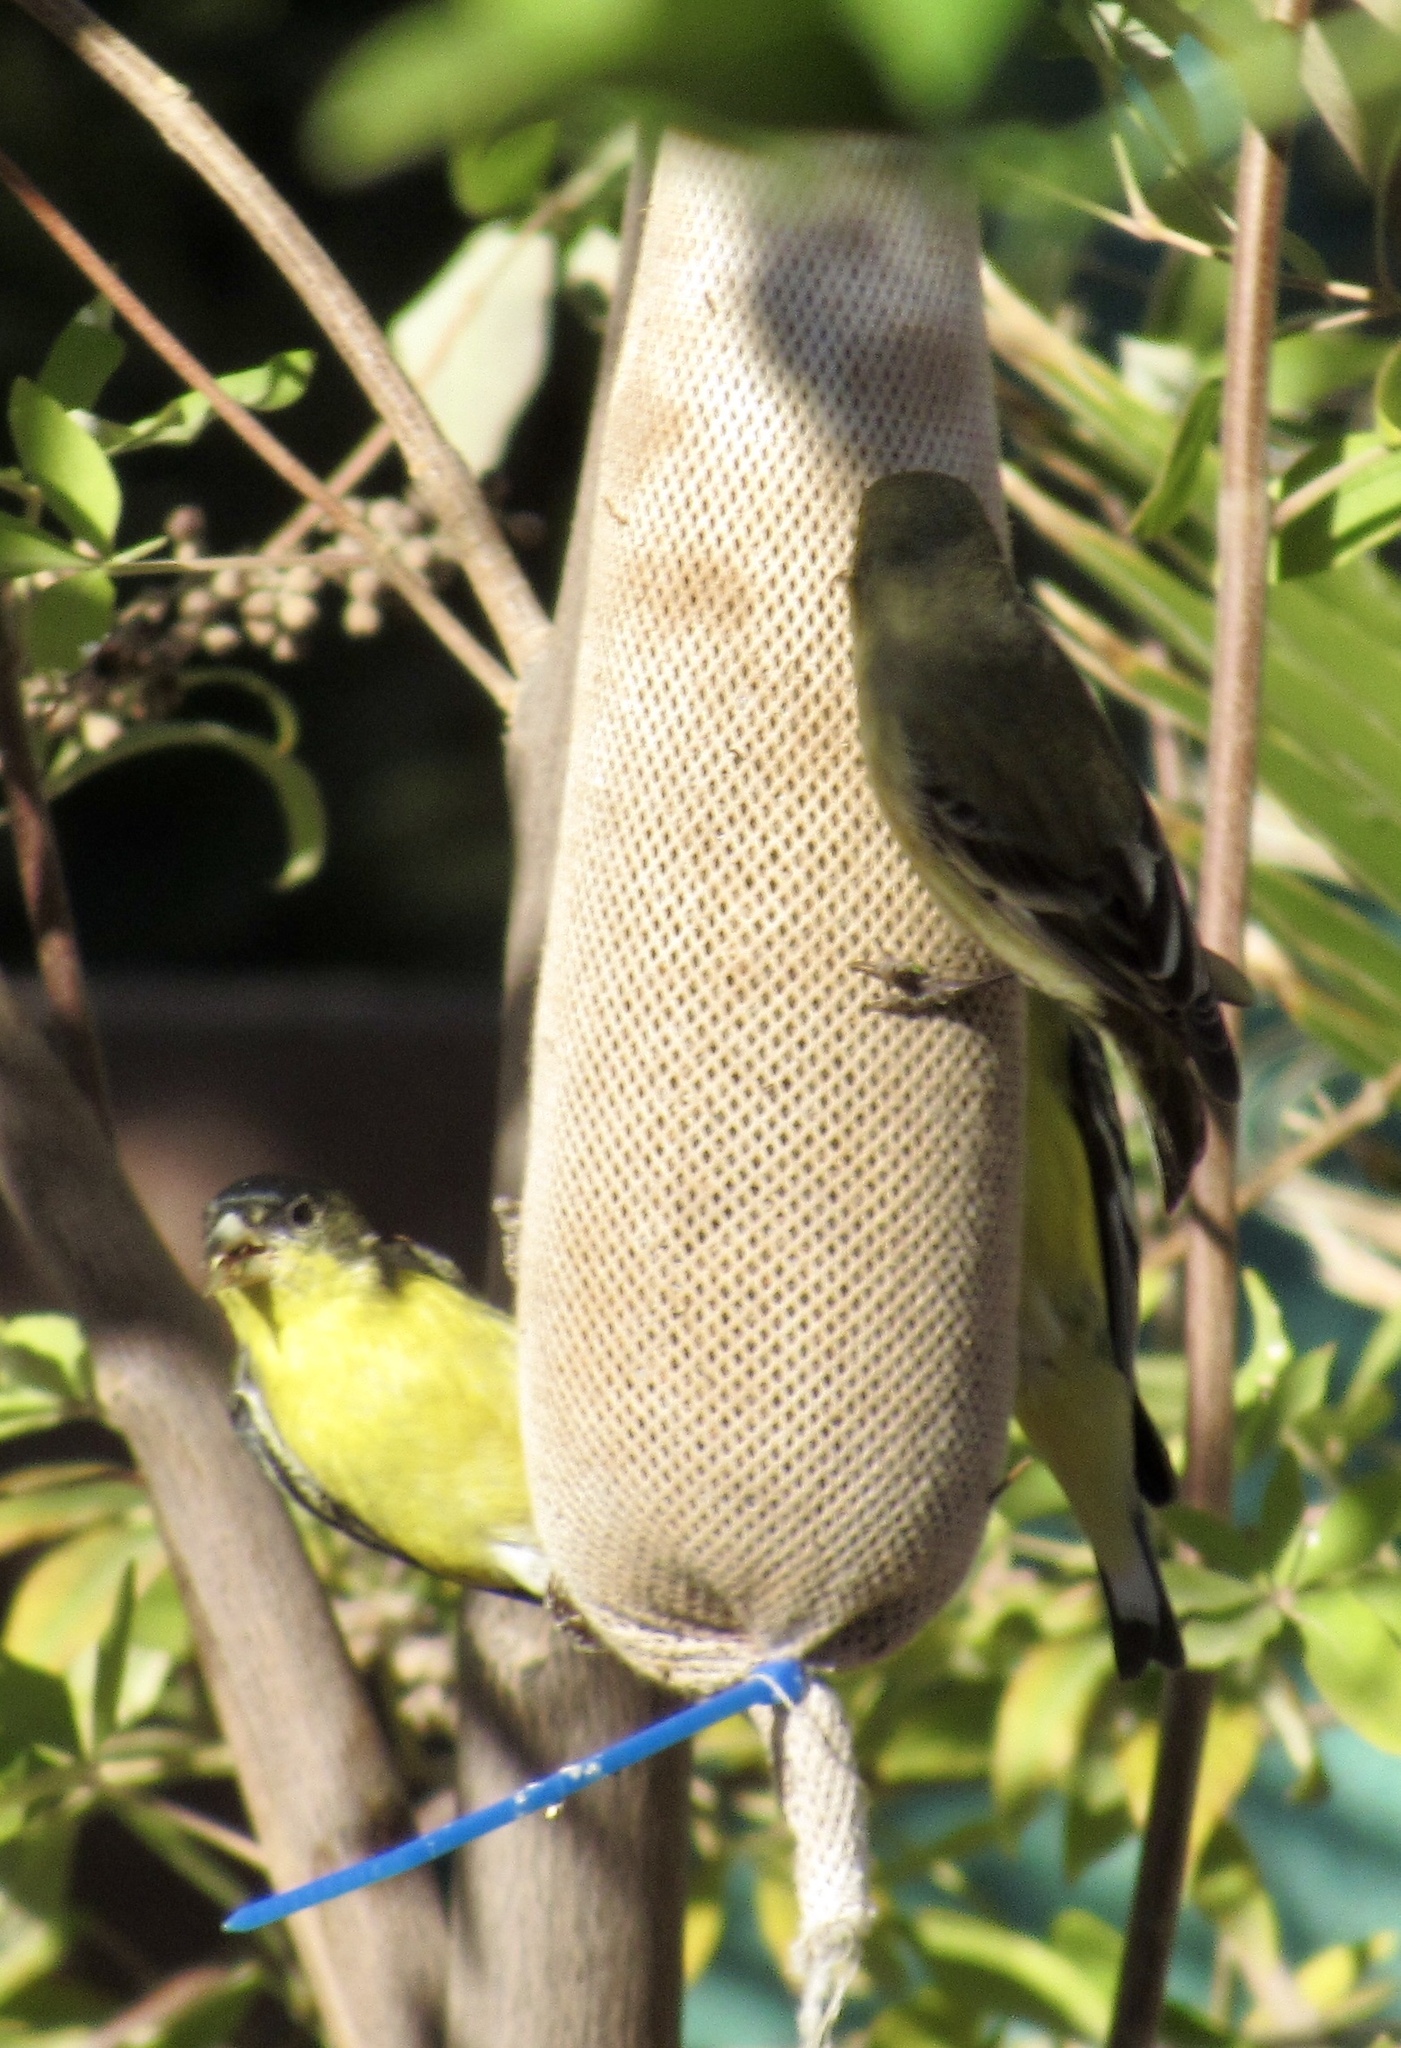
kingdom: Animalia
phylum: Chordata
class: Aves
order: Passeriformes
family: Fringillidae
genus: Spinus
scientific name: Spinus psaltria
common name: Lesser goldfinch
